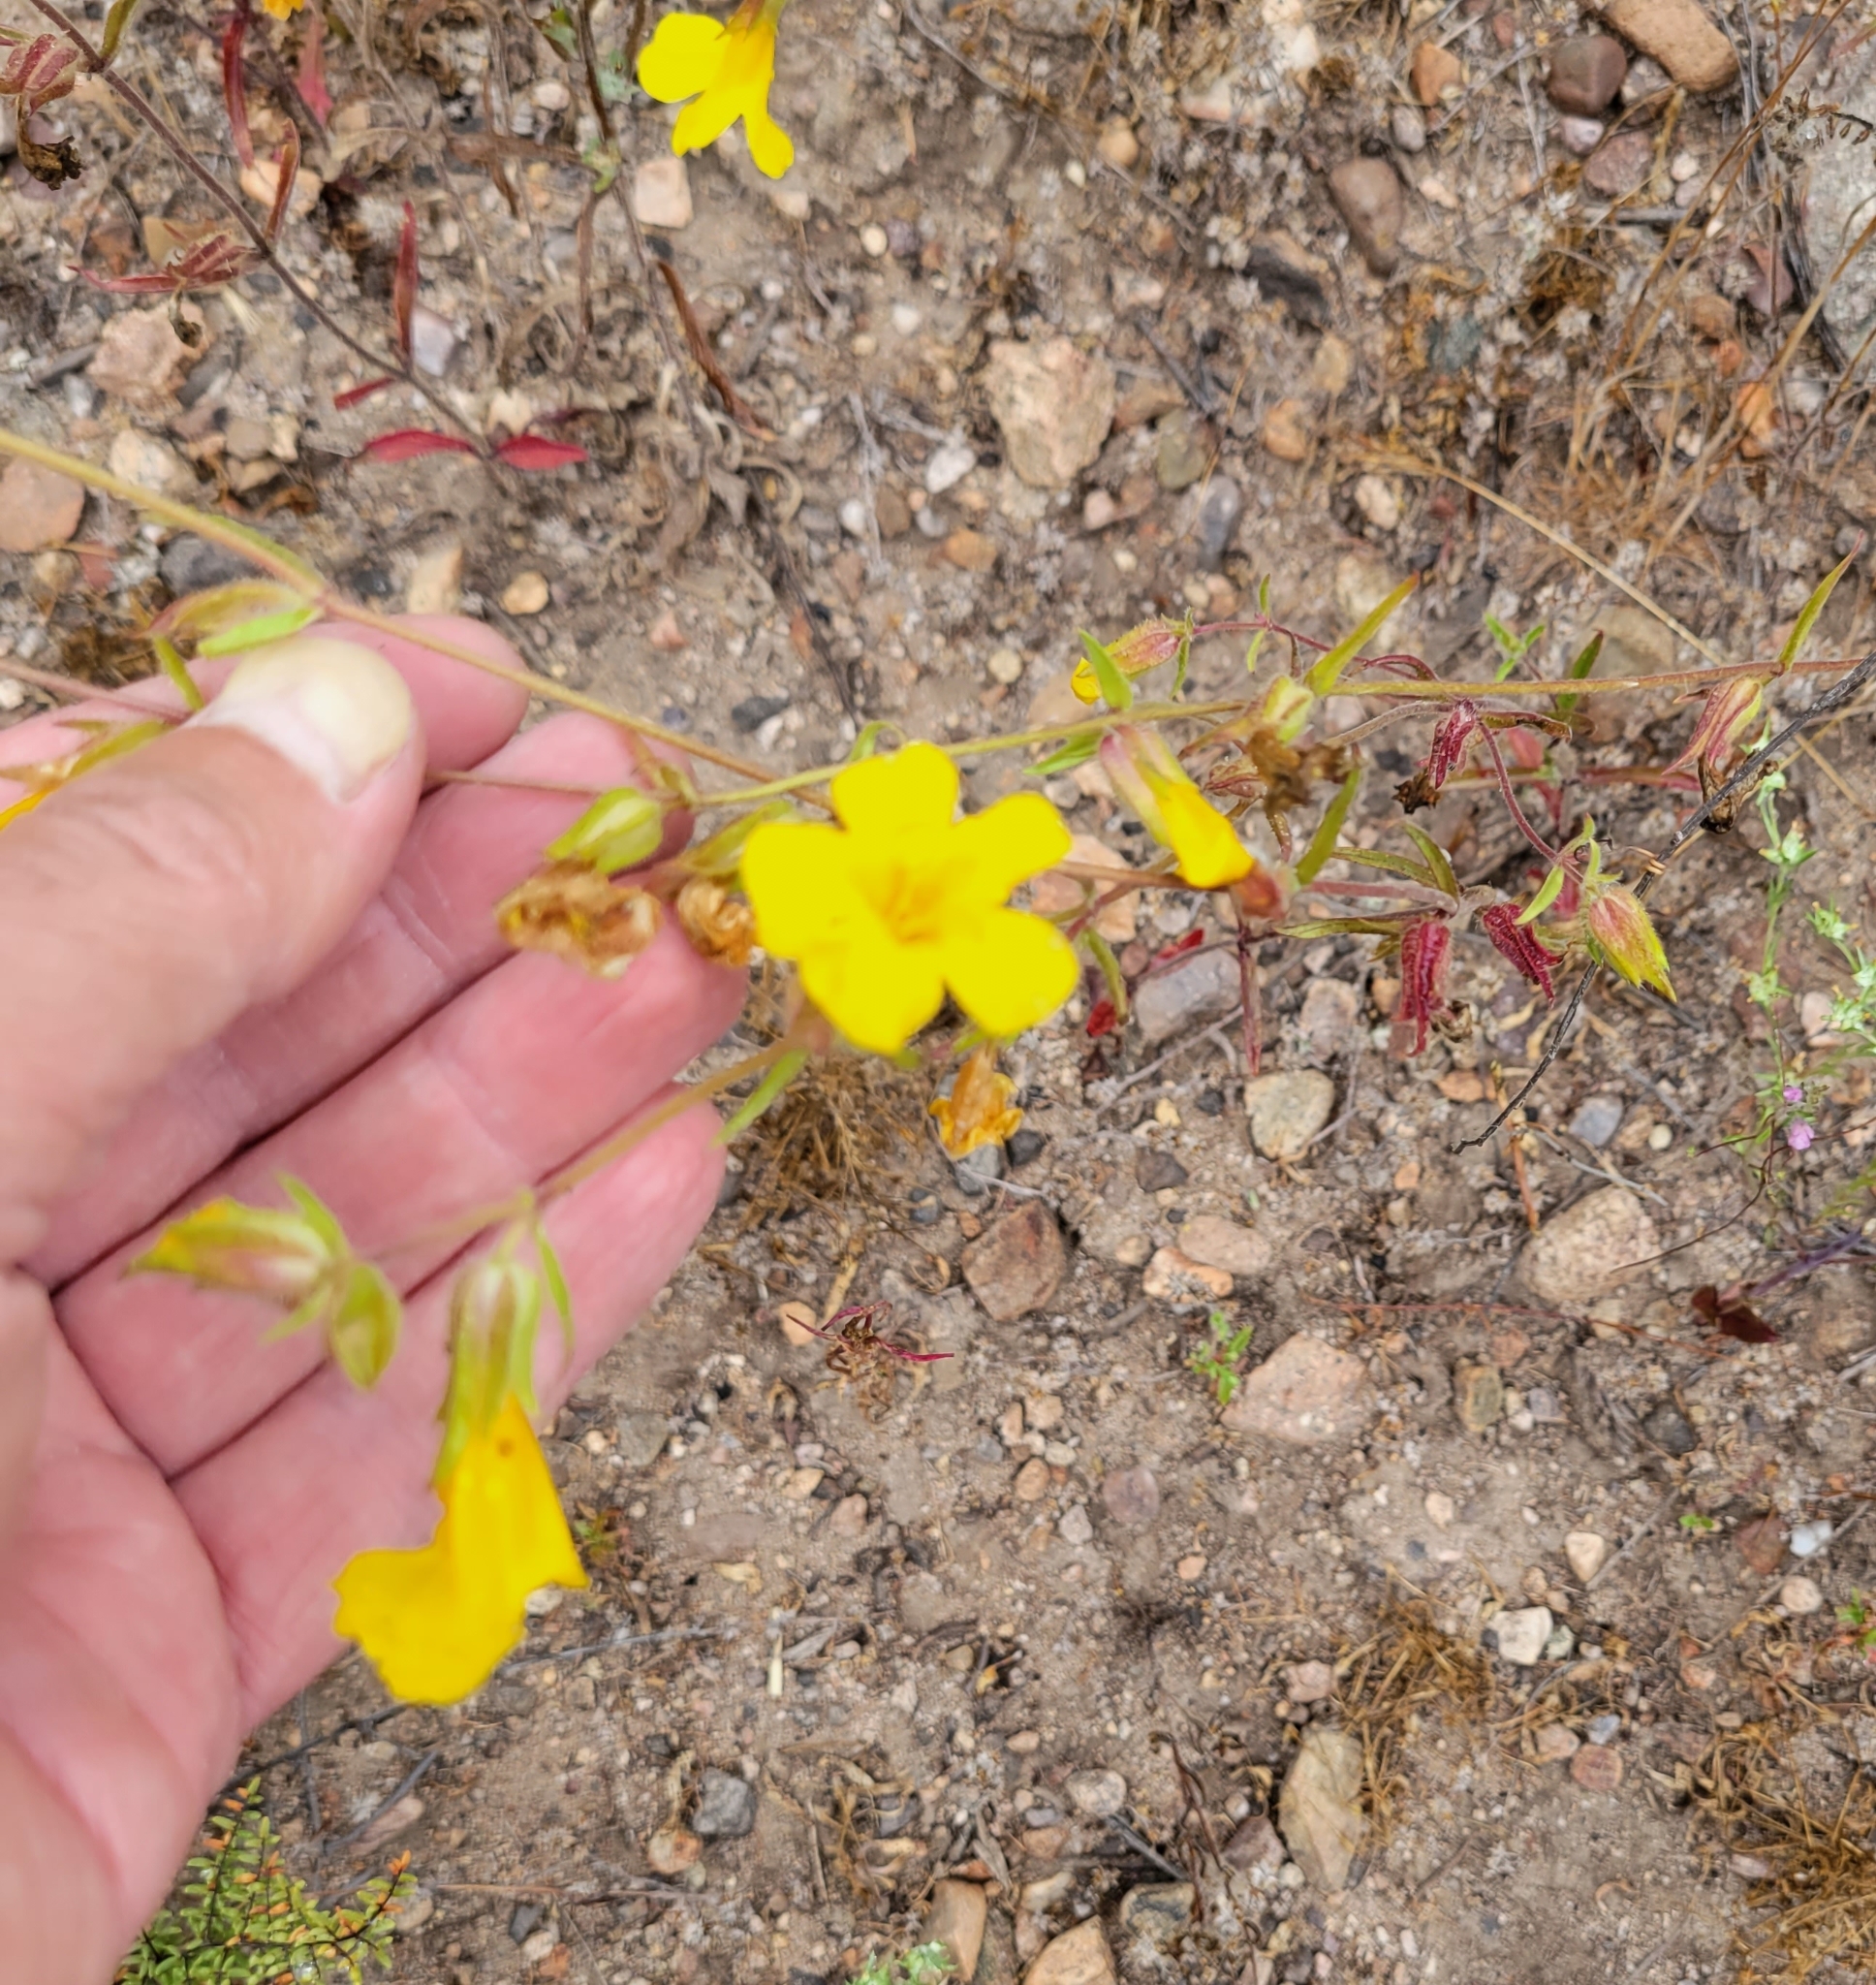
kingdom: Plantae
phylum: Tracheophyta
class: Magnoliopsida
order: Lamiales
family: Phrymaceae
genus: Diplacus
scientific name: Diplacus brevipes
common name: Wide-throat yellow monkey-flower
